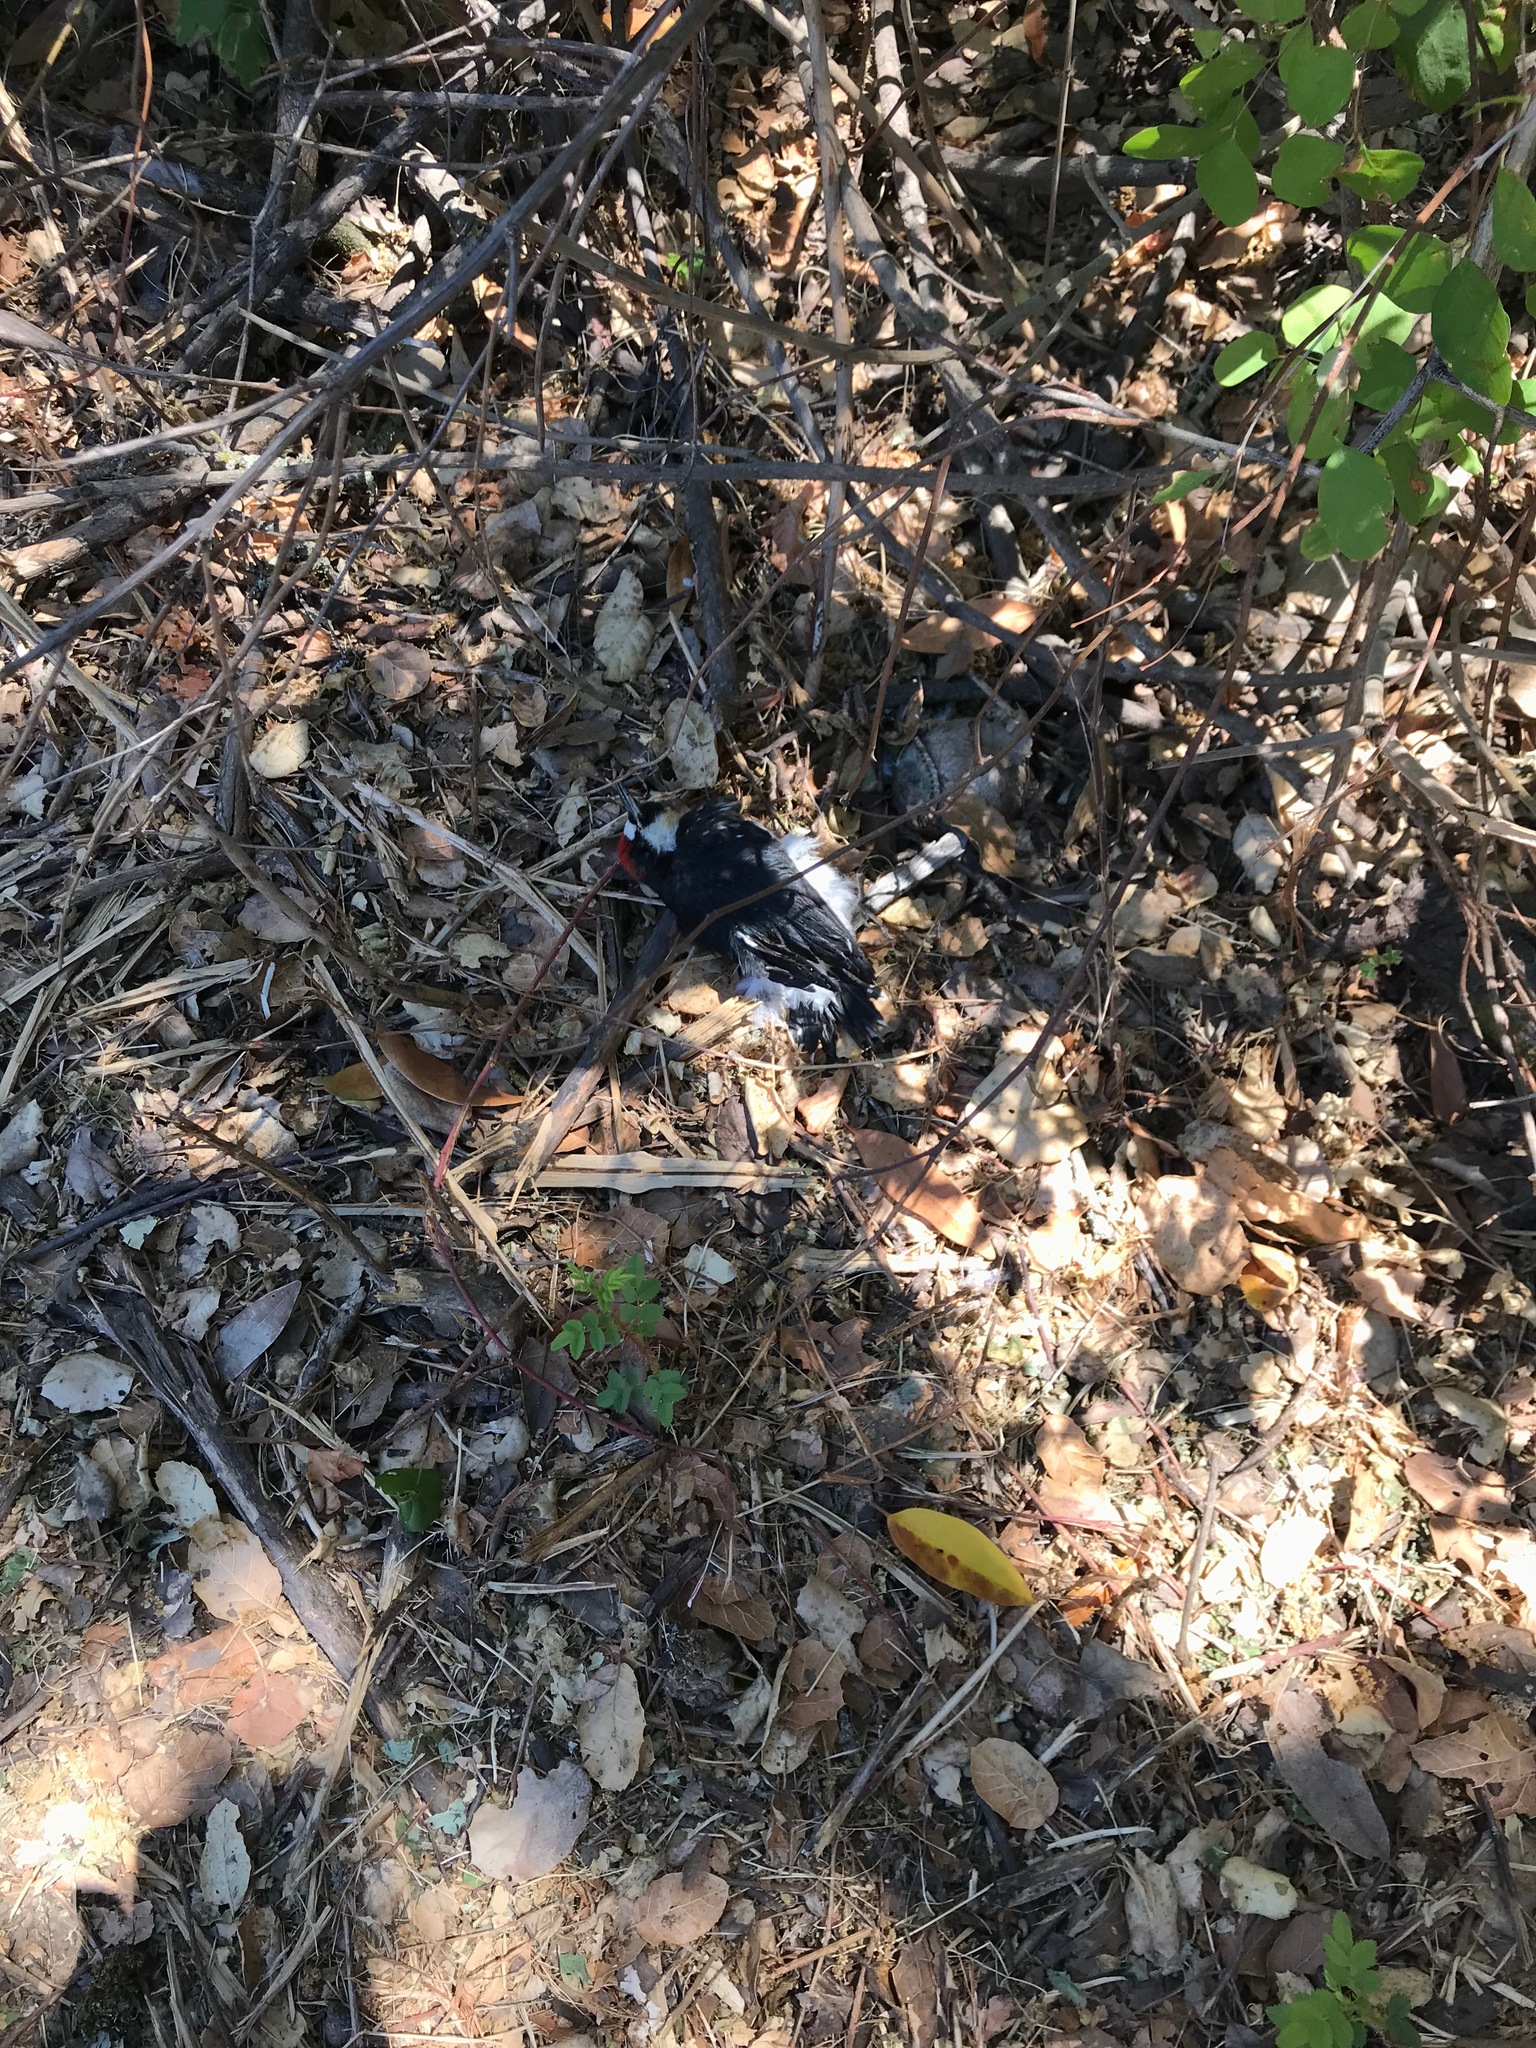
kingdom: Animalia
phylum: Chordata
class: Aves
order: Piciformes
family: Picidae
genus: Melanerpes
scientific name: Melanerpes formicivorus
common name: Acorn woodpecker
